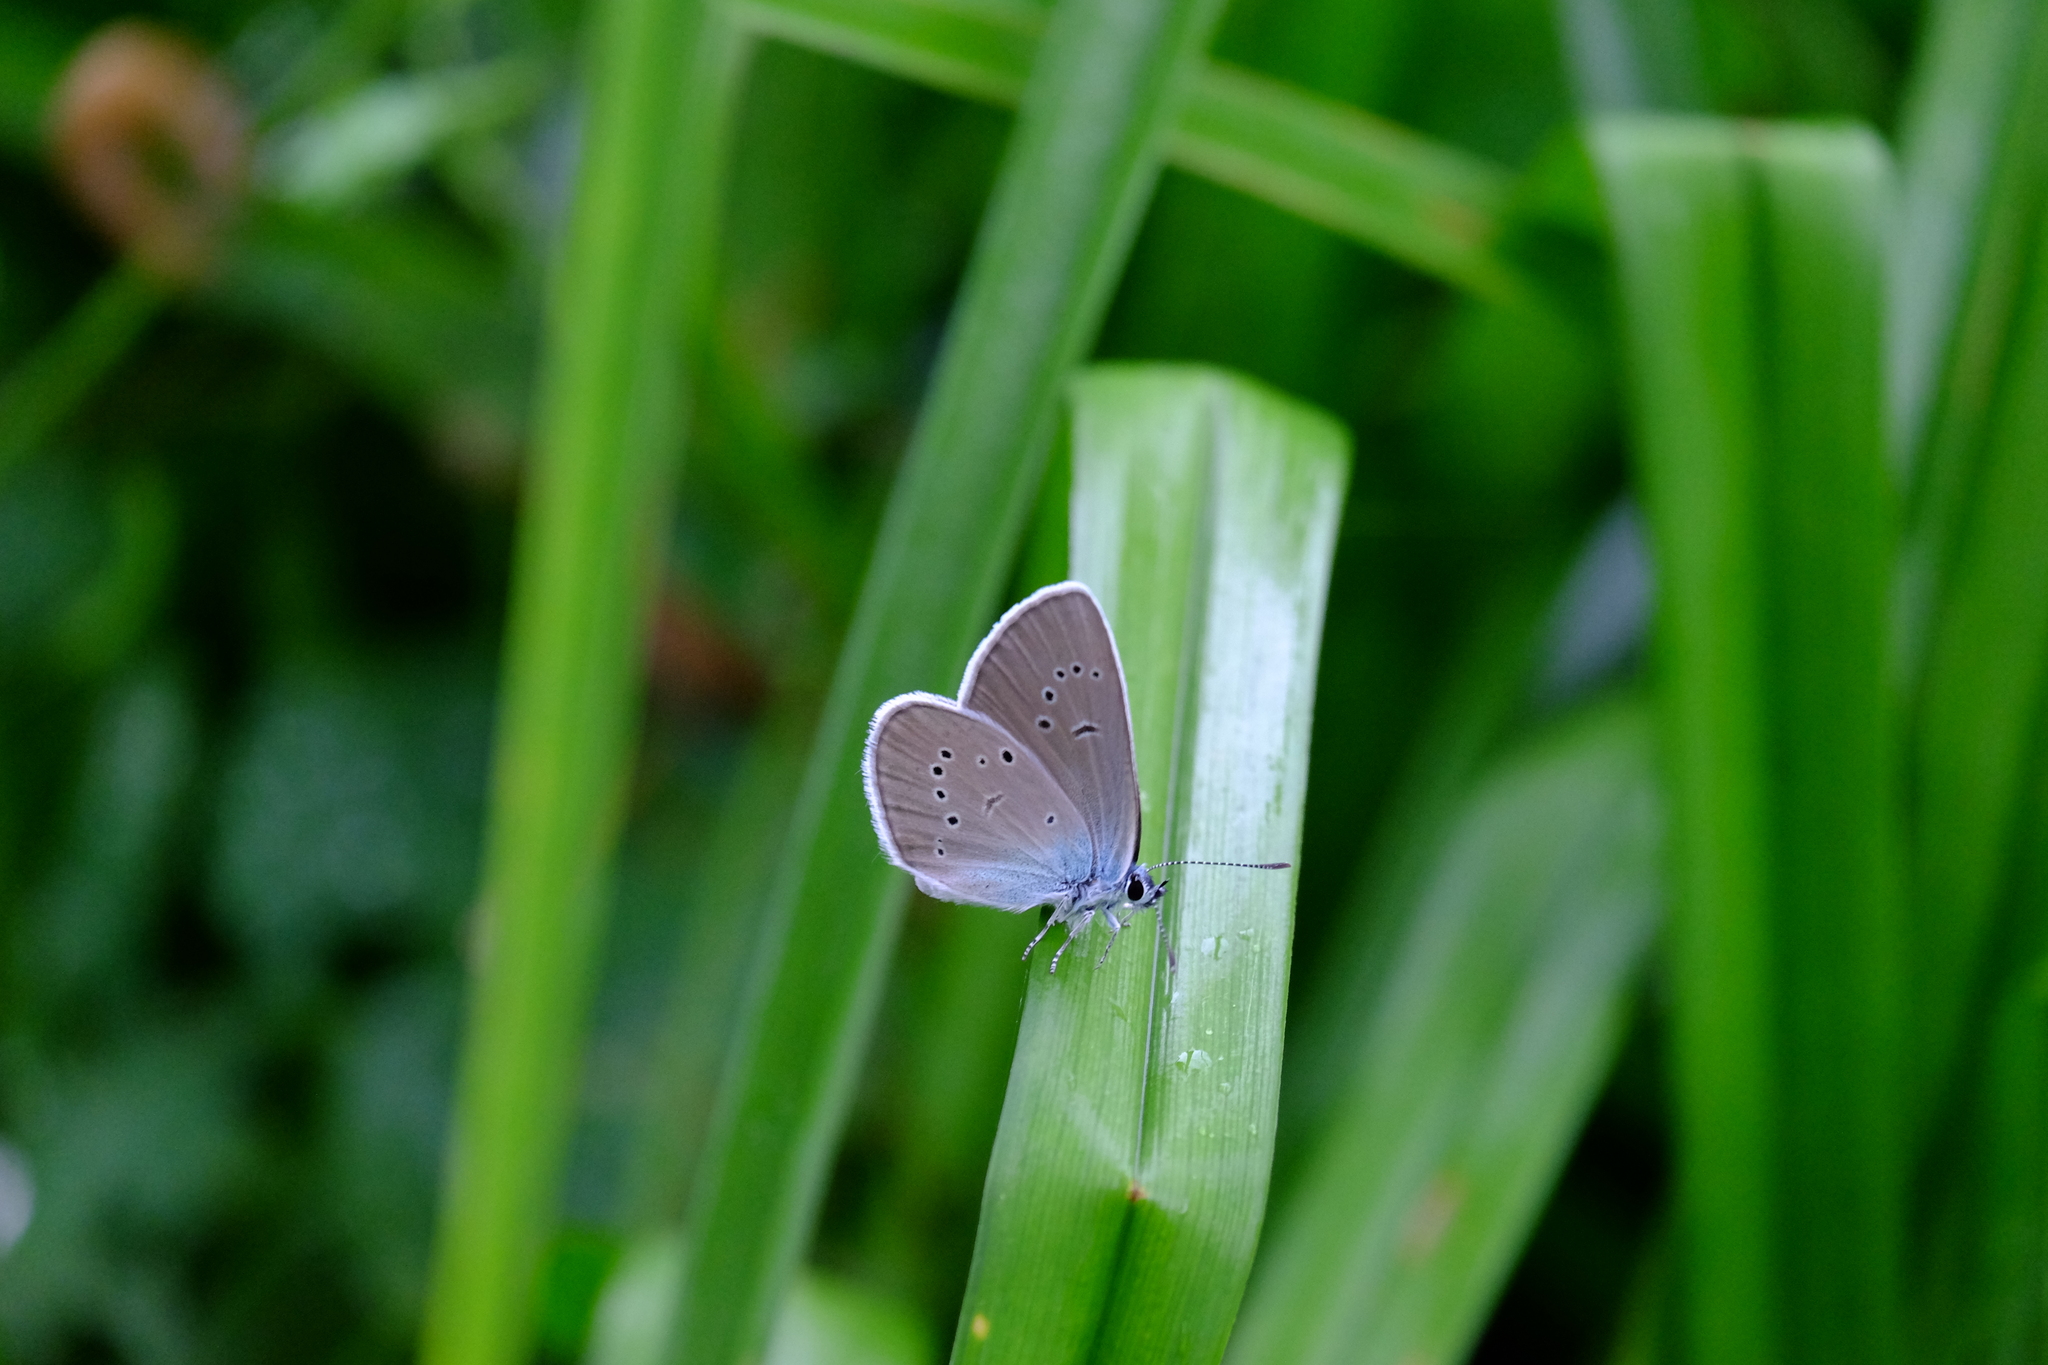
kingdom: Animalia
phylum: Arthropoda
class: Insecta
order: Lepidoptera
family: Lycaenidae
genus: Cyaniris
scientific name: Cyaniris semiargus
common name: Mazarine blue
